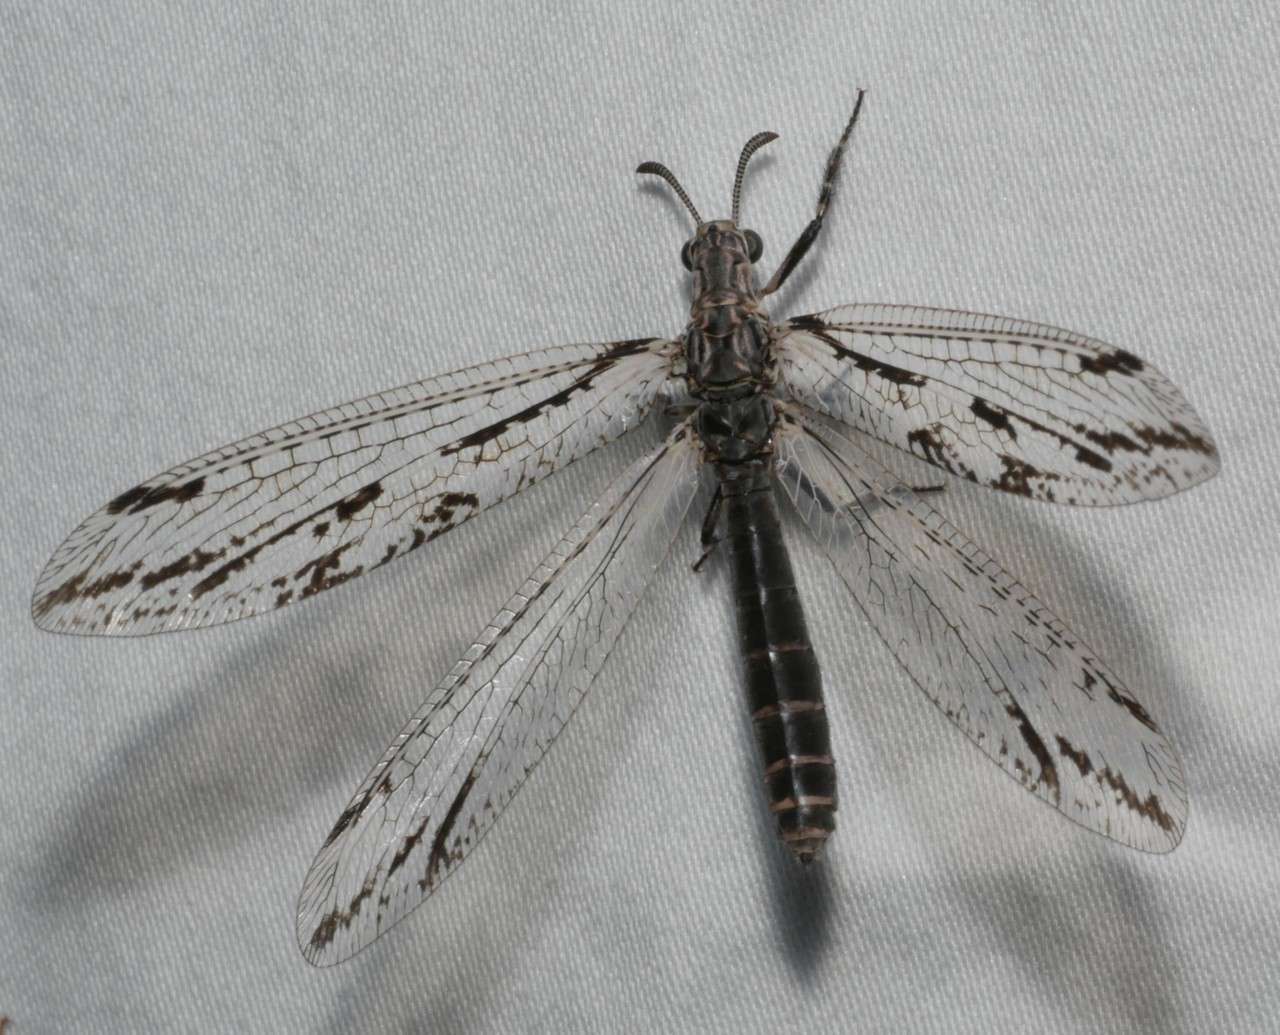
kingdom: Animalia
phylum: Arthropoda
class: Insecta
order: Neuroptera
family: Myrmeleontidae
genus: Austrogymnocnemia
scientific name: Austrogymnocnemia striata
